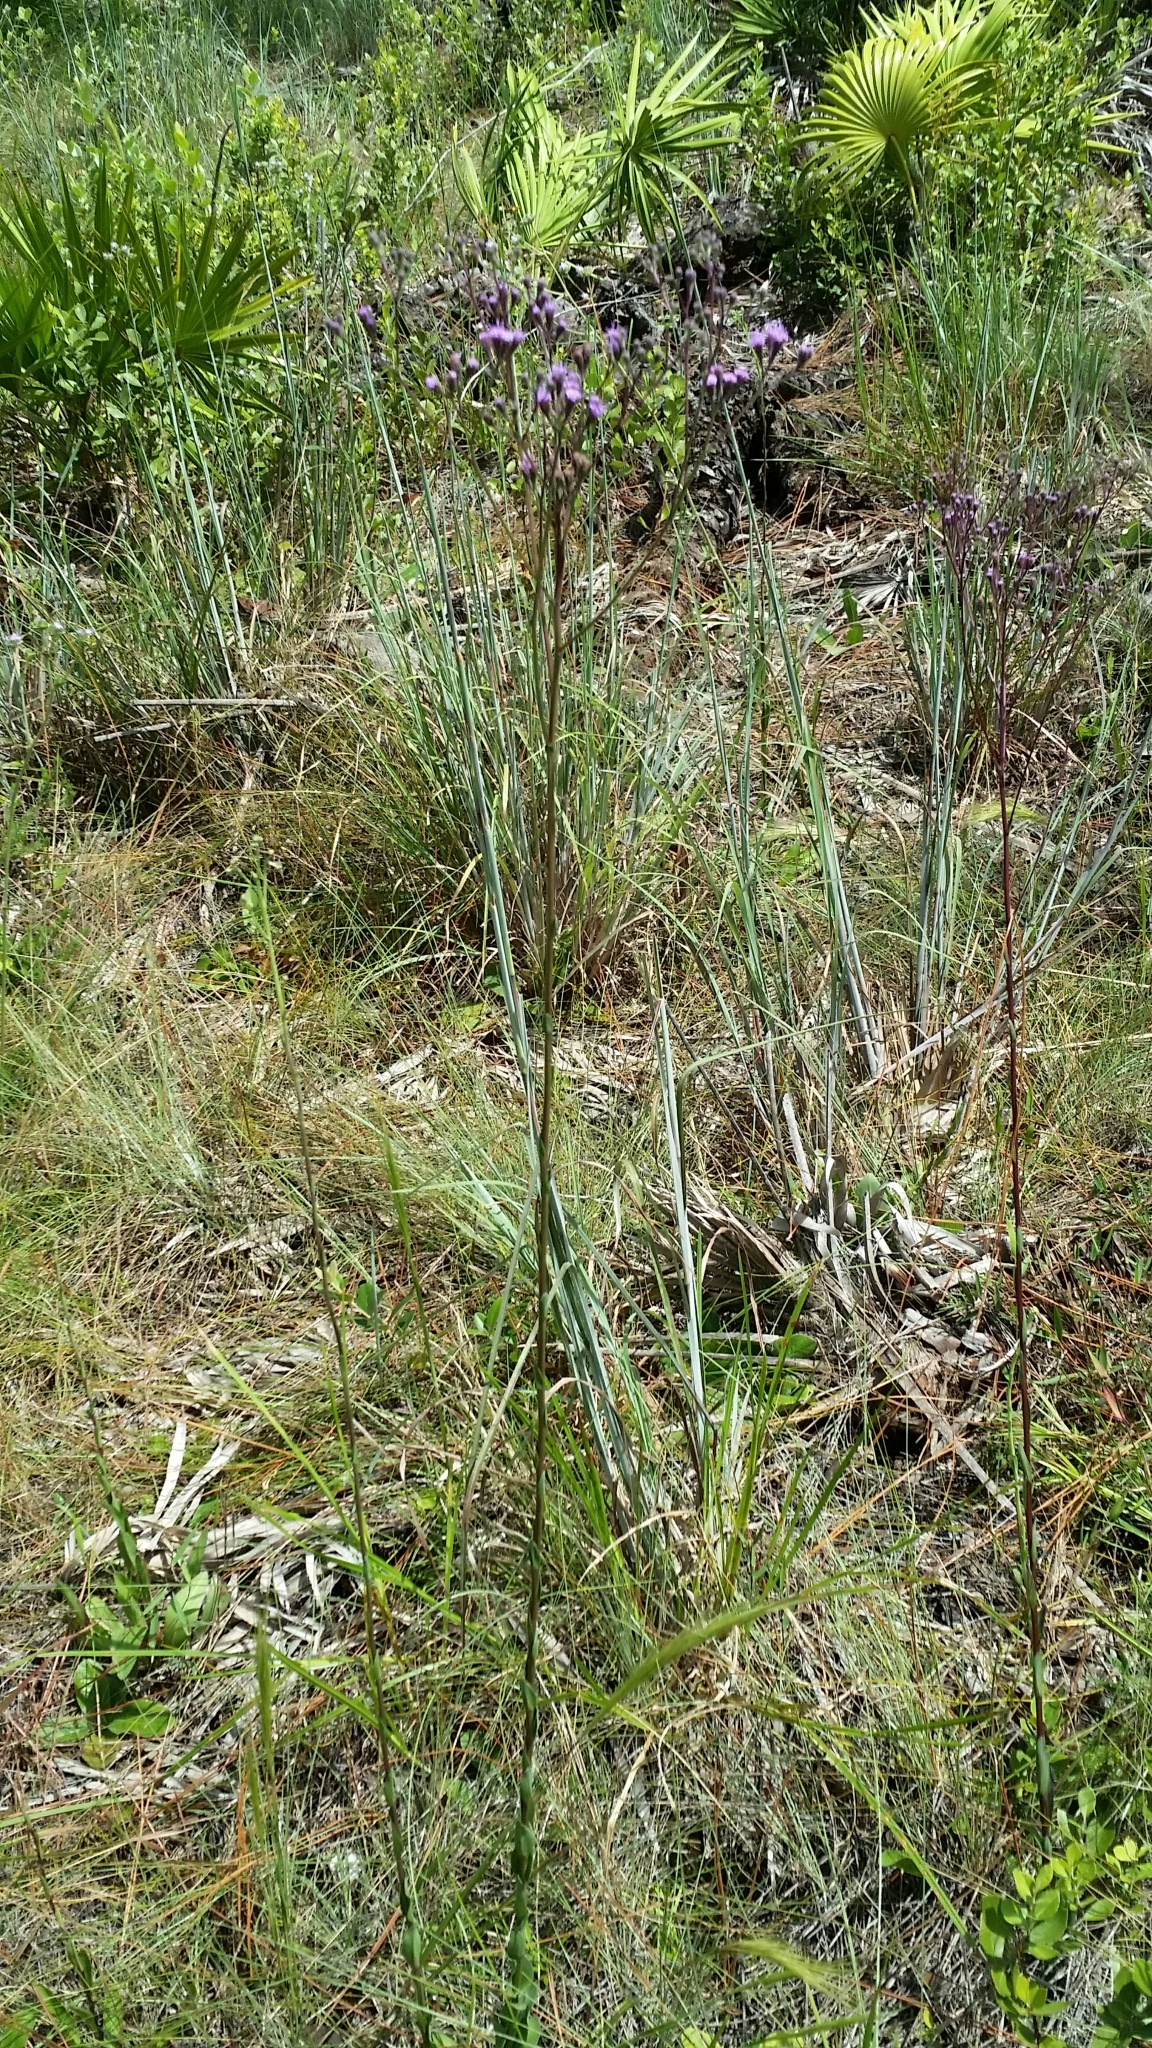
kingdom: Plantae
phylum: Tracheophyta
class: Magnoliopsida
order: Asterales
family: Asteraceae
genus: Carphephorus
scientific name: Carphephorus
